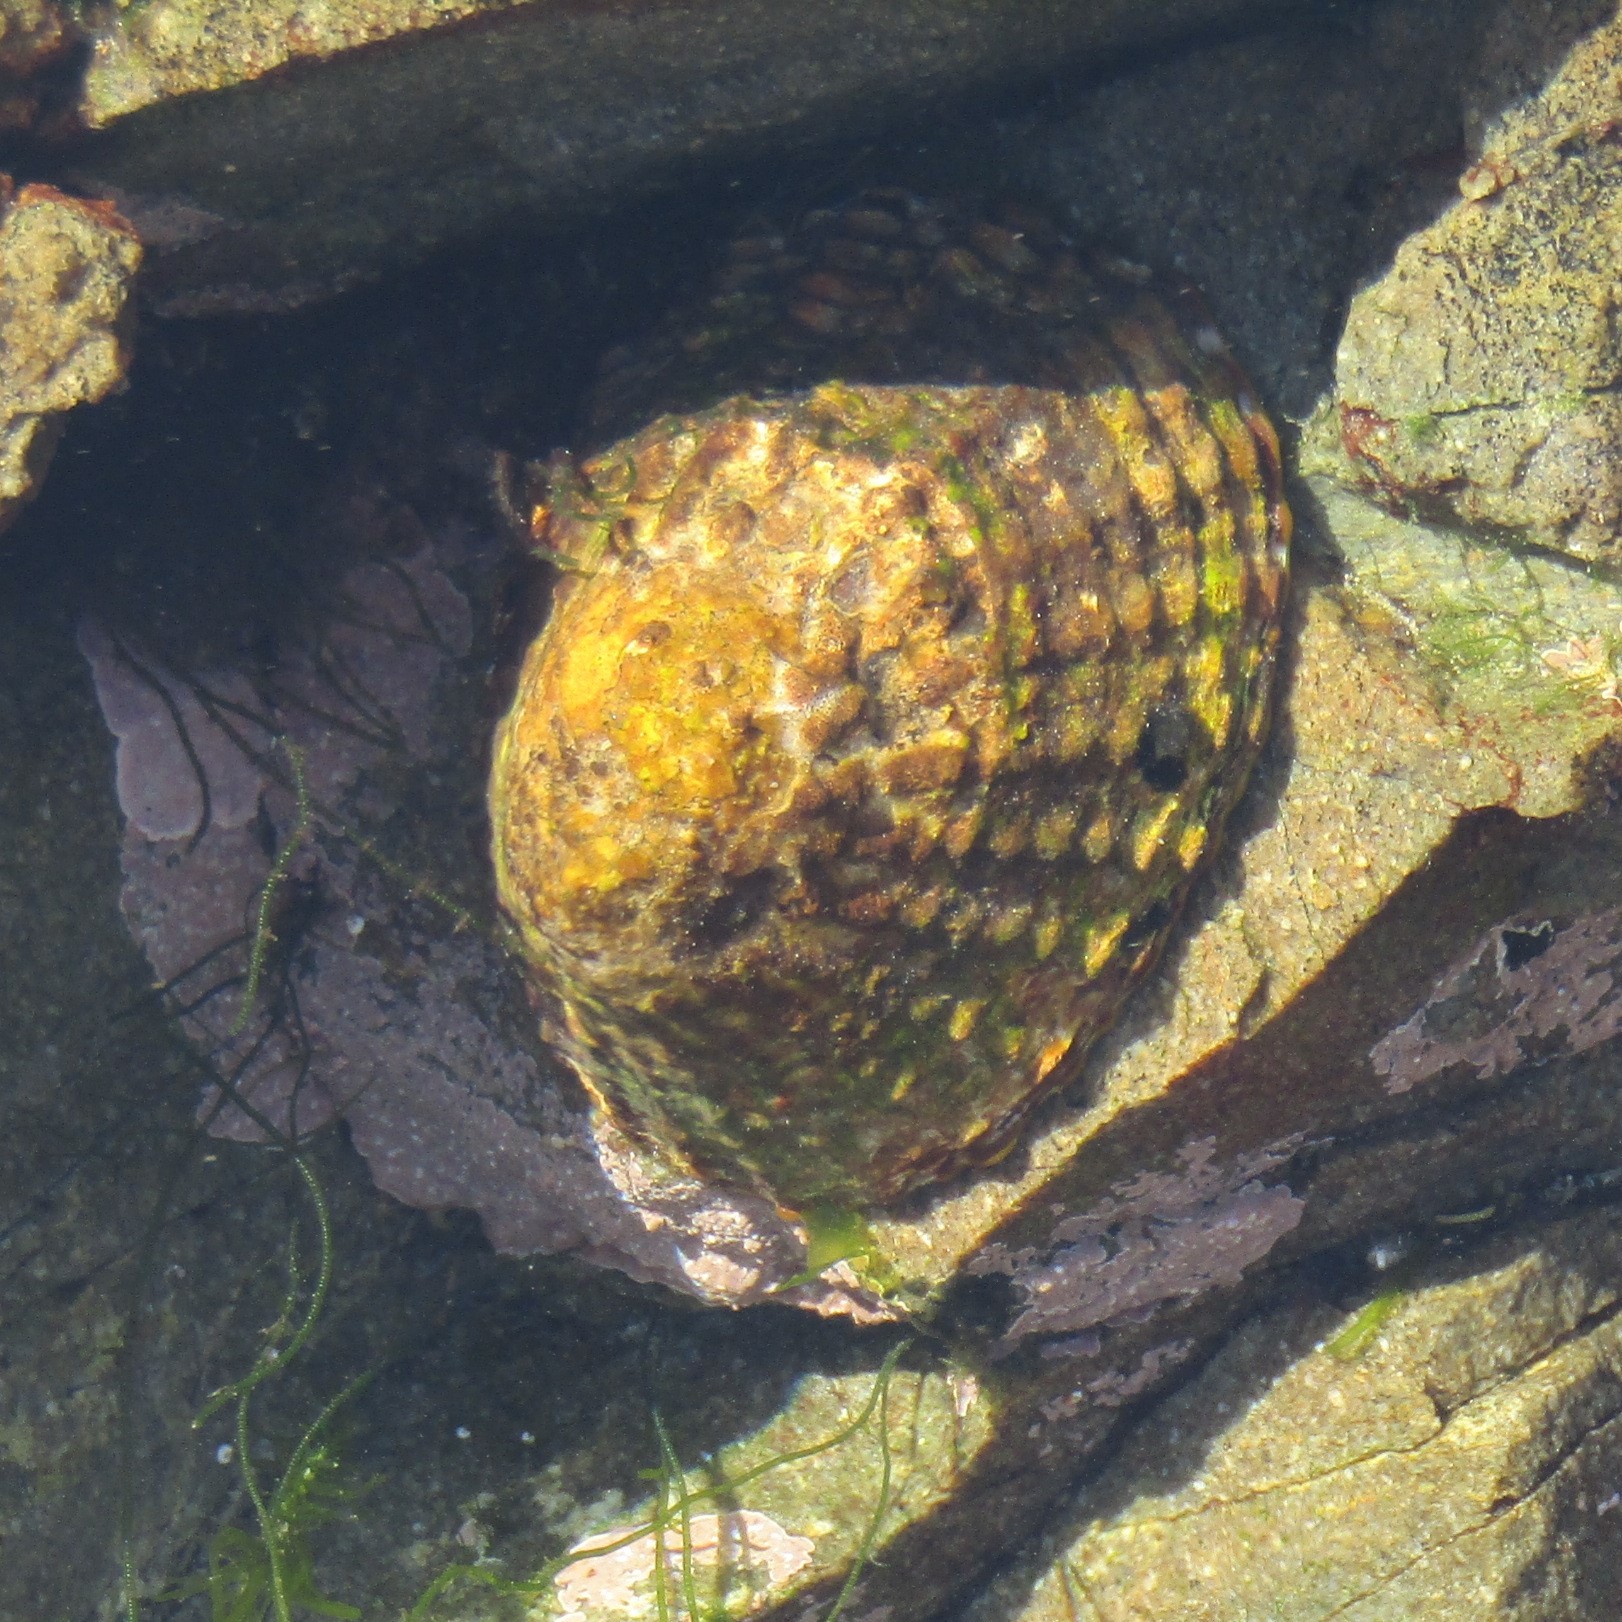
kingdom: Animalia
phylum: Mollusca
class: Gastropoda
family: Nacellidae
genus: Cellana
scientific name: Cellana denticulata
